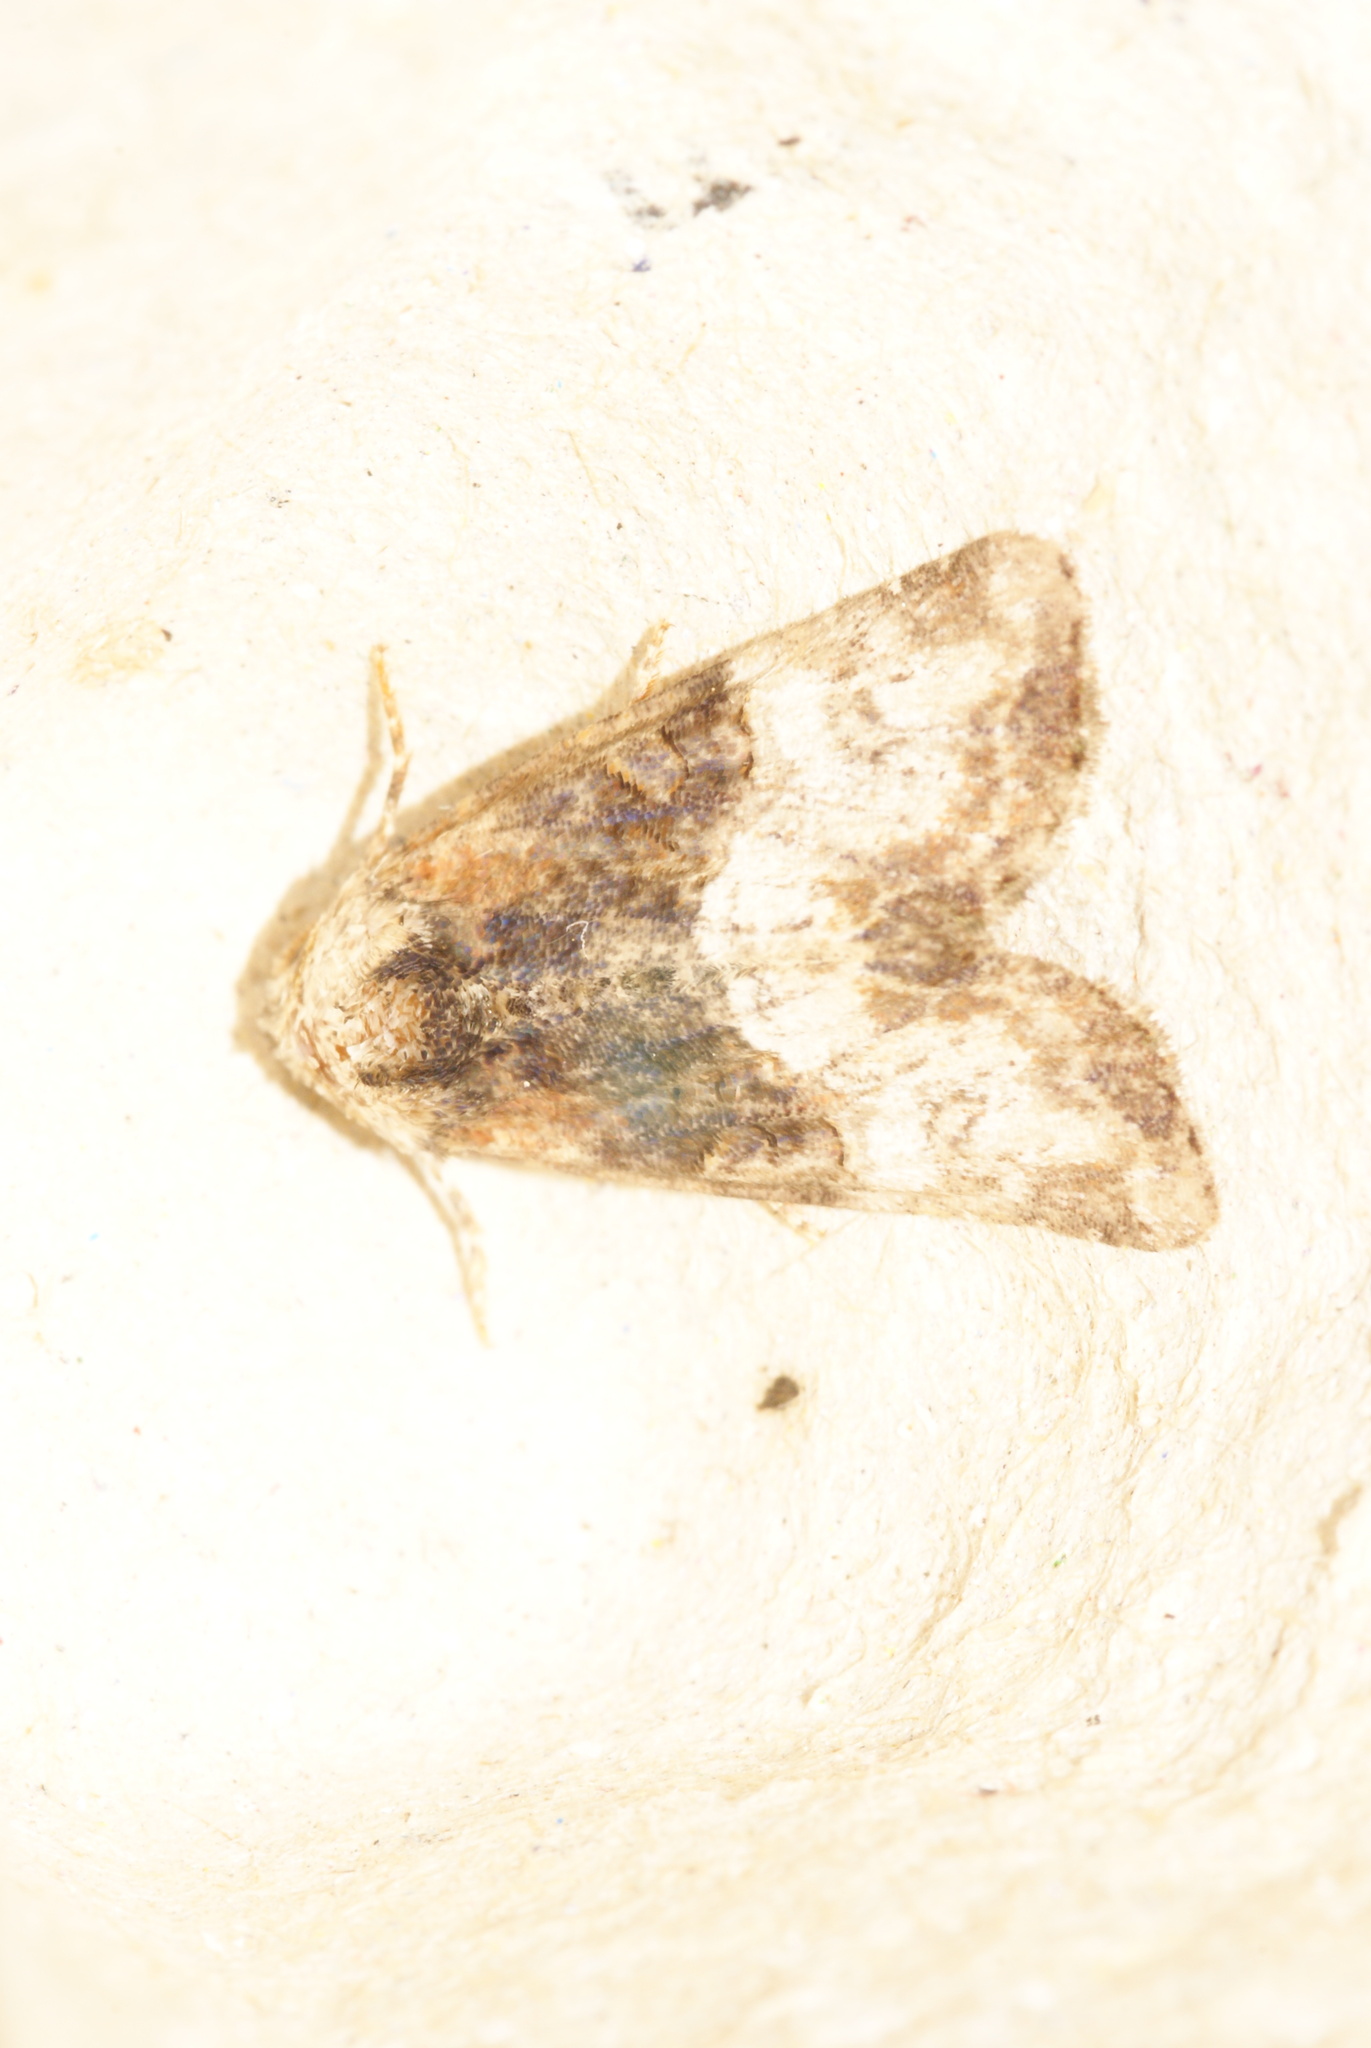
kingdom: Animalia
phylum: Arthropoda
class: Insecta
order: Lepidoptera
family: Noctuidae
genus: Mesoligia
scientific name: Mesoligia furuncula
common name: Cloaked minor
